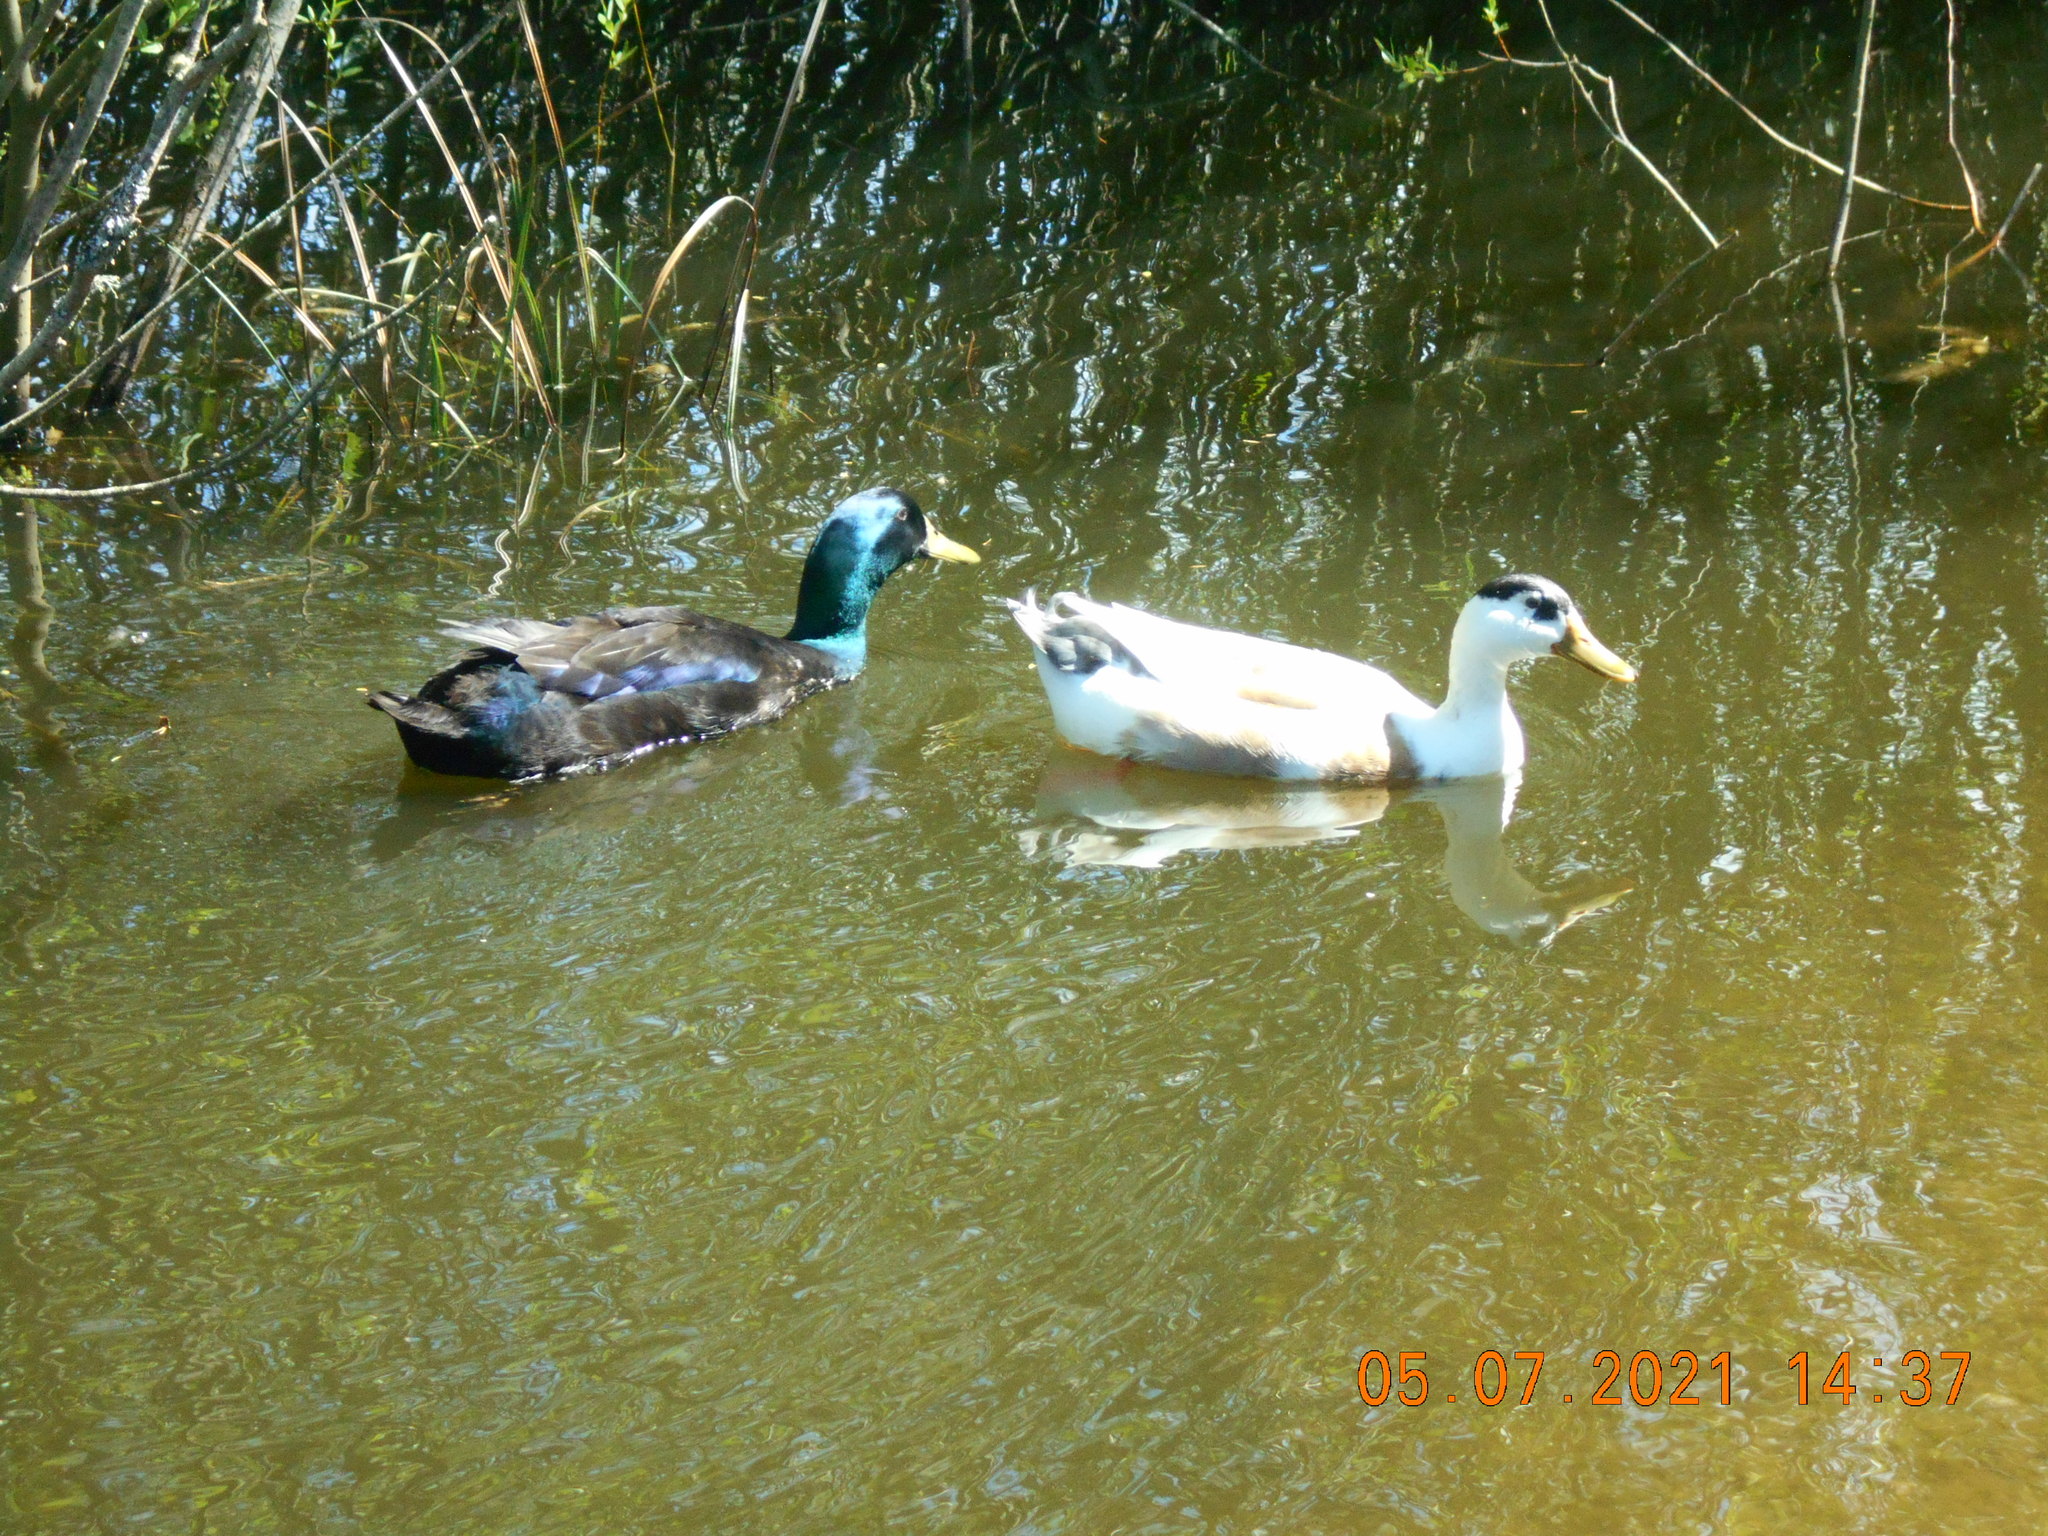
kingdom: Animalia
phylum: Chordata
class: Aves
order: Anseriformes
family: Anatidae
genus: Anas
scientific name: Anas platyrhynchos
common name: Mallard
